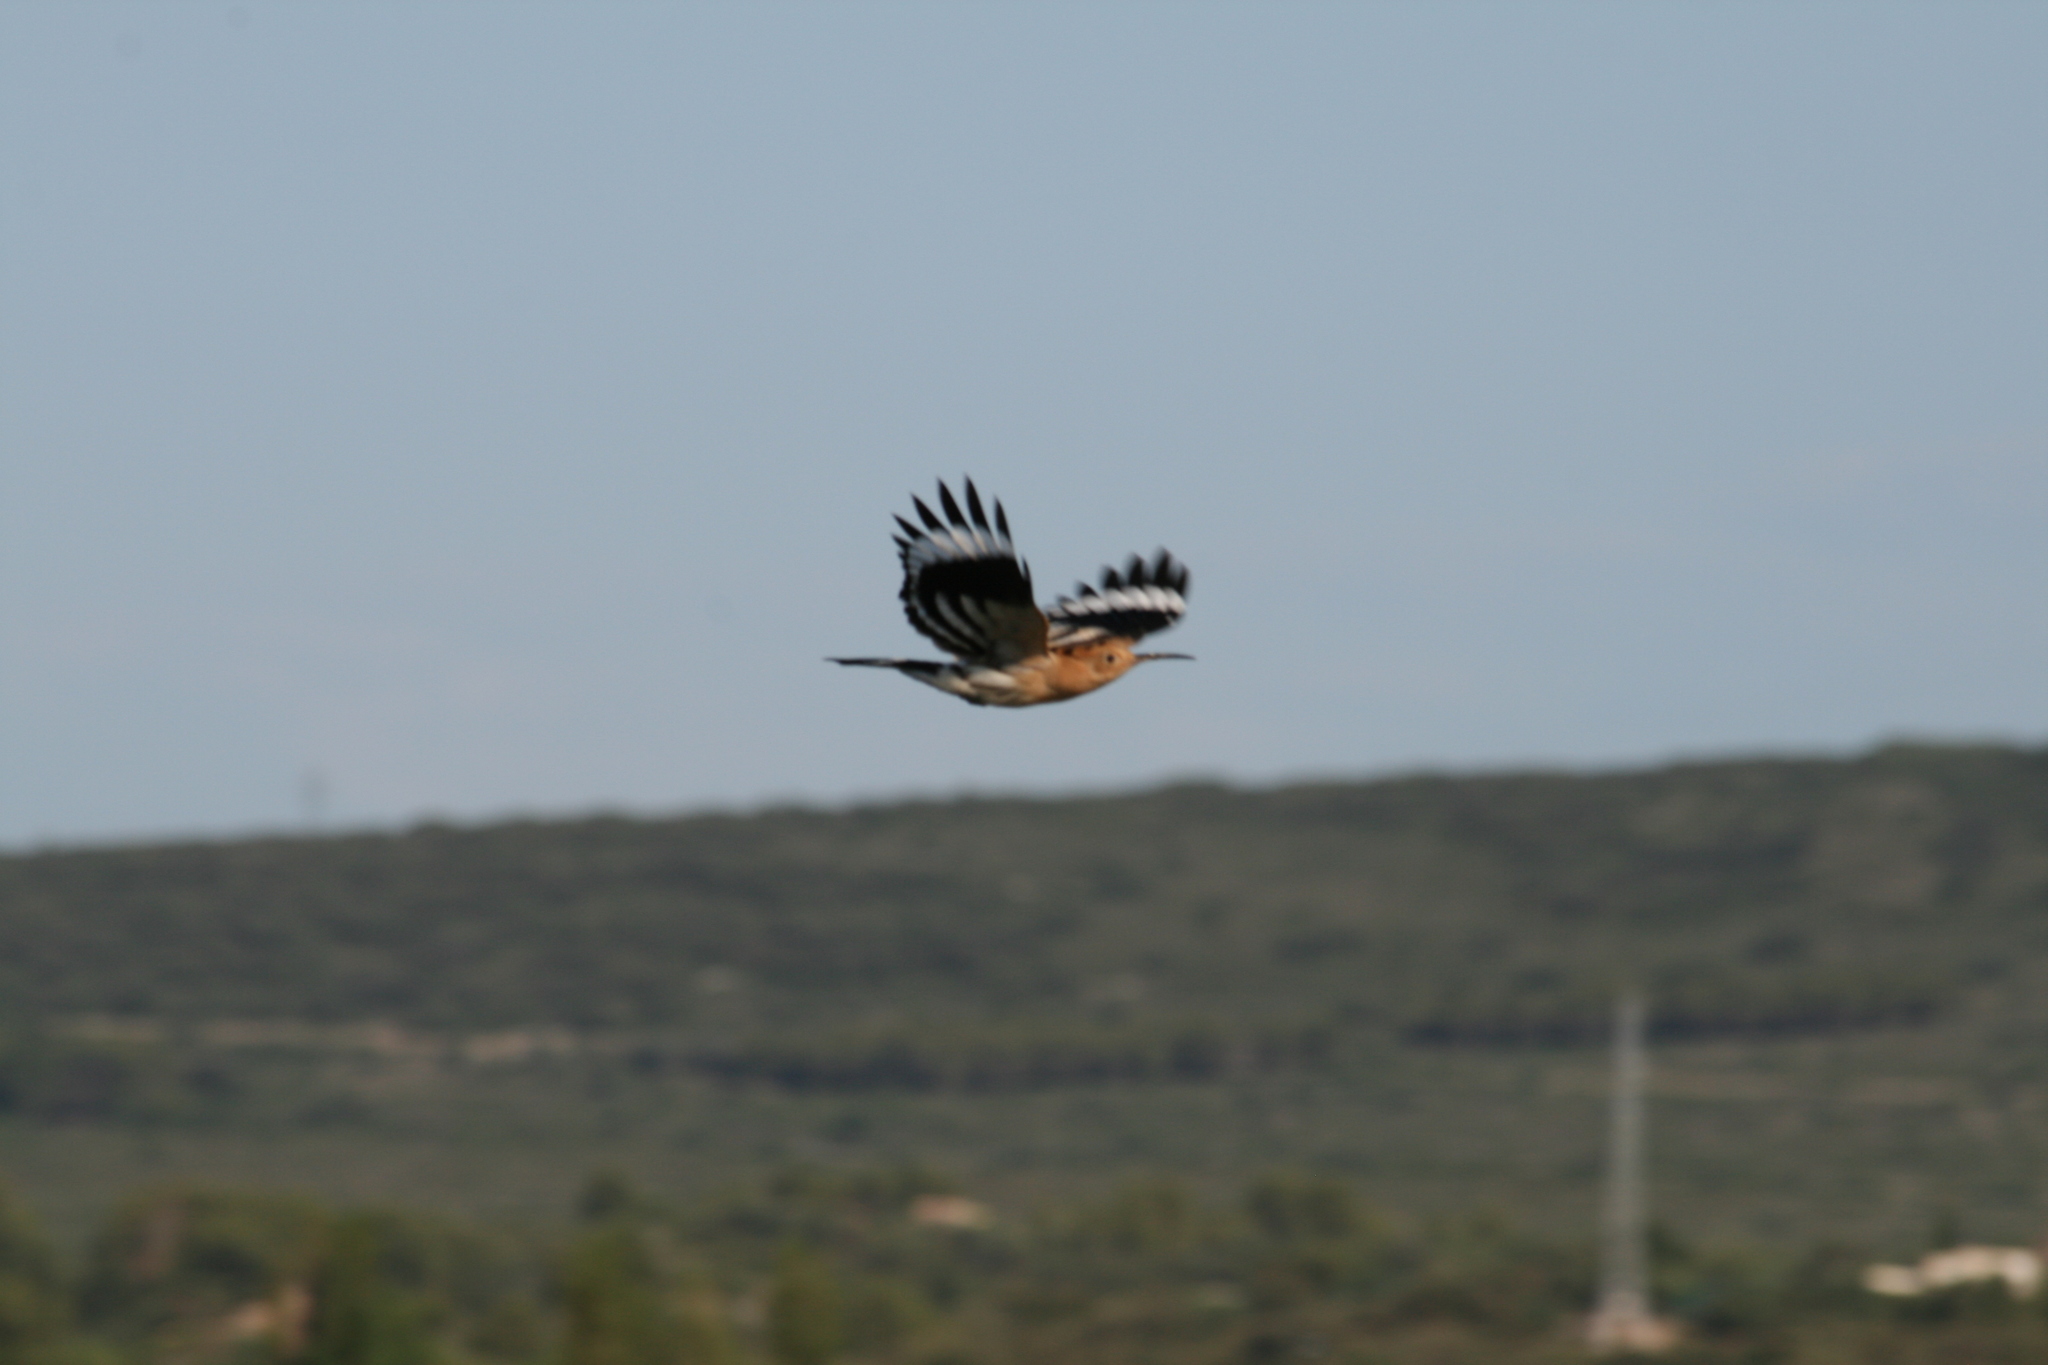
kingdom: Animalia
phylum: Chordata
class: Aves
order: Bucerotiformes
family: Upupidae
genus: Upupa
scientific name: Upupa epops
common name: Eurasian hoopoe
